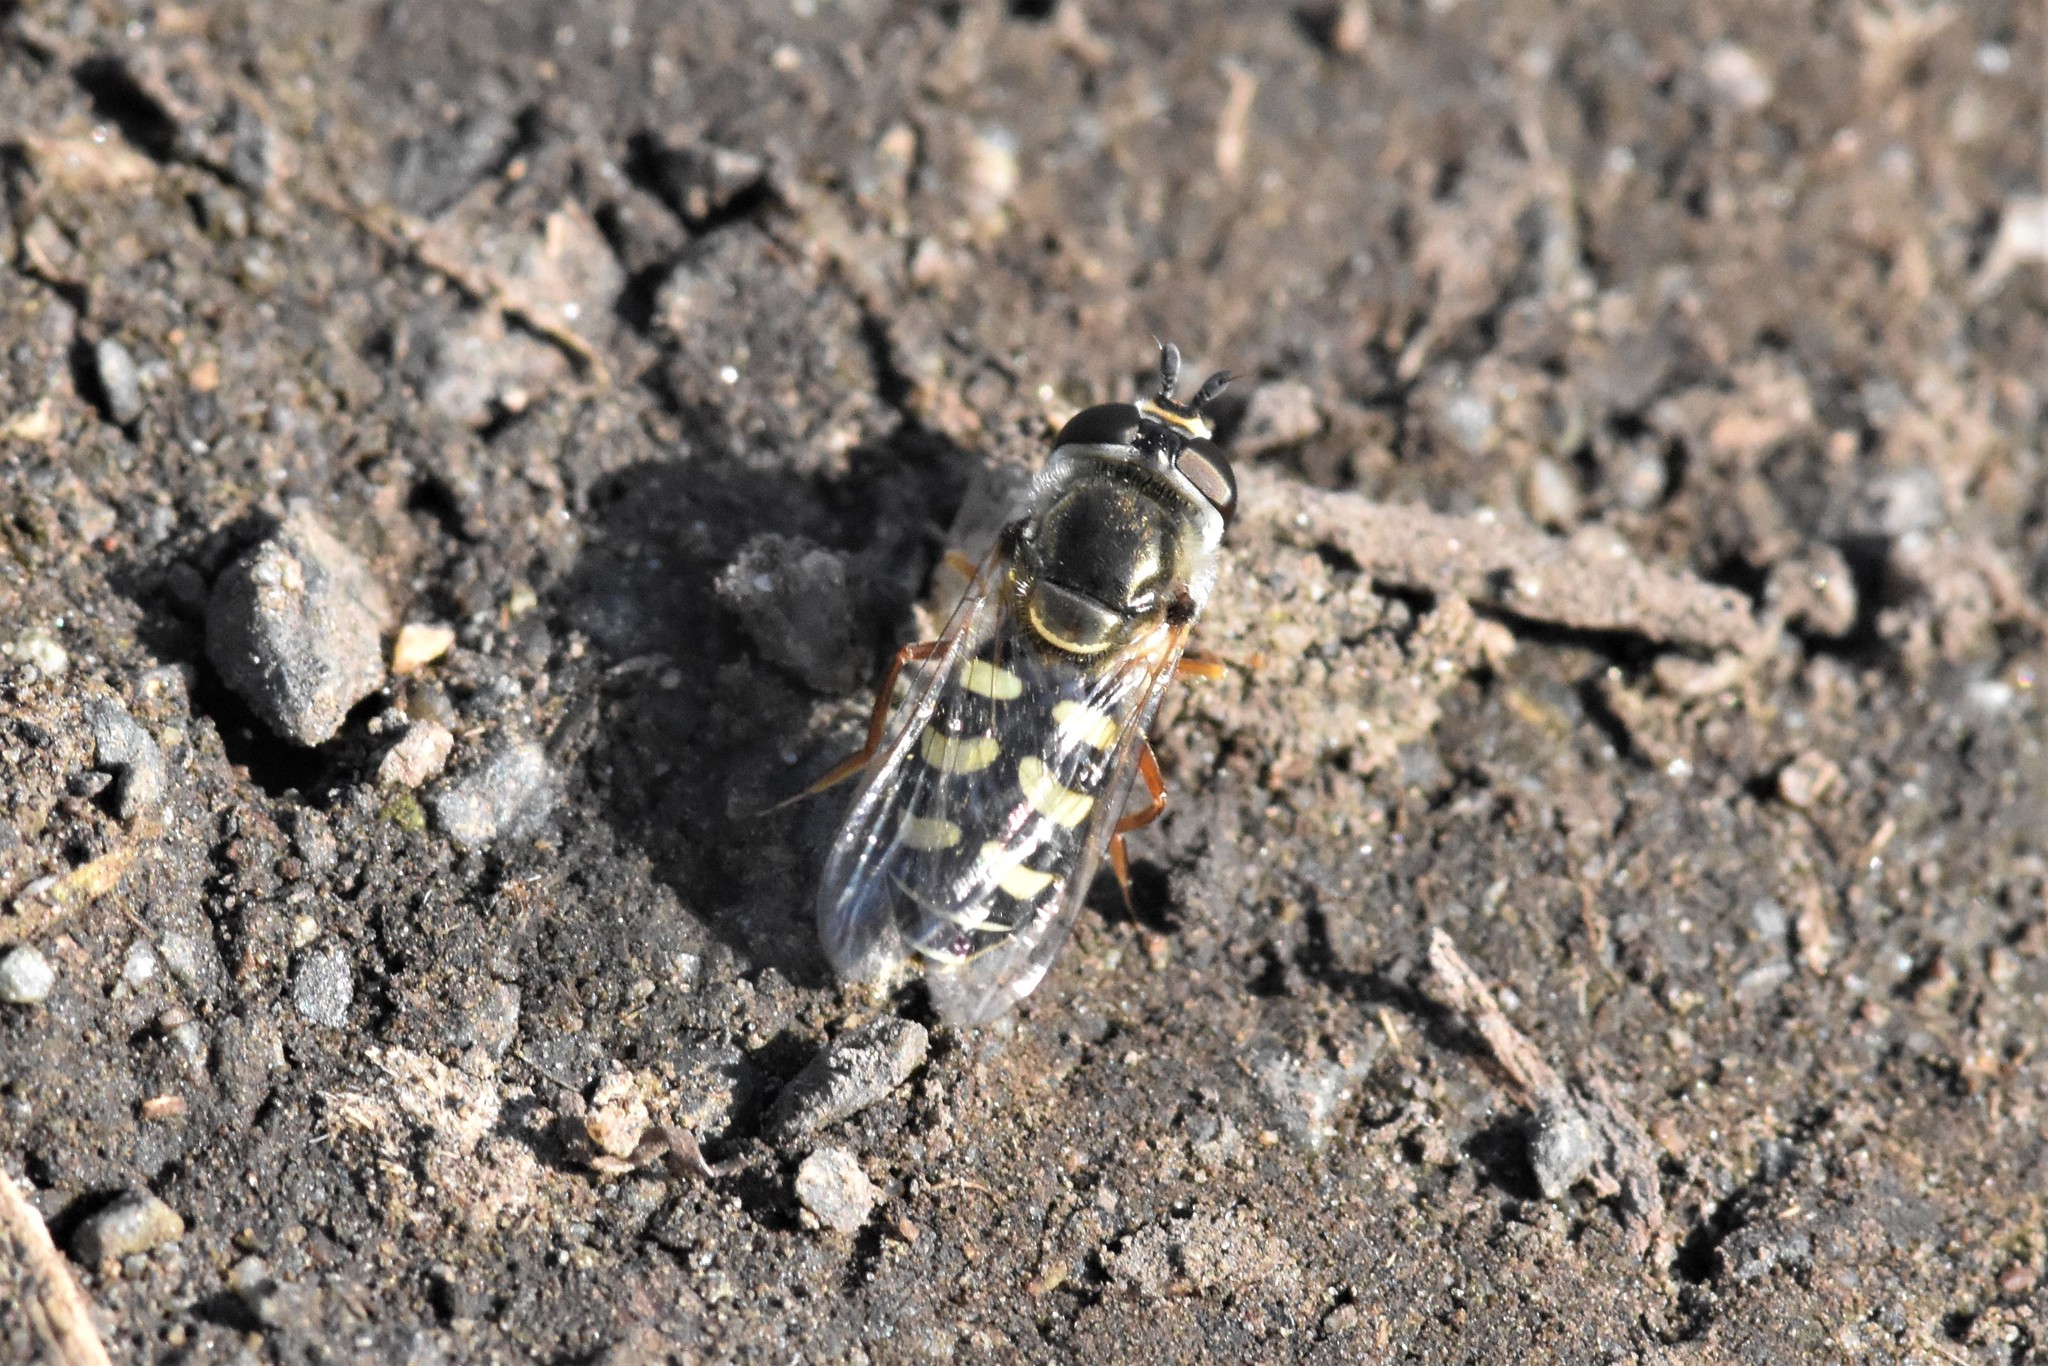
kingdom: Animalia
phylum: Arthropoda
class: Insecta
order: Diptera
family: Syrphidae
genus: Eupeodes
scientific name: Eupeodes volucris
